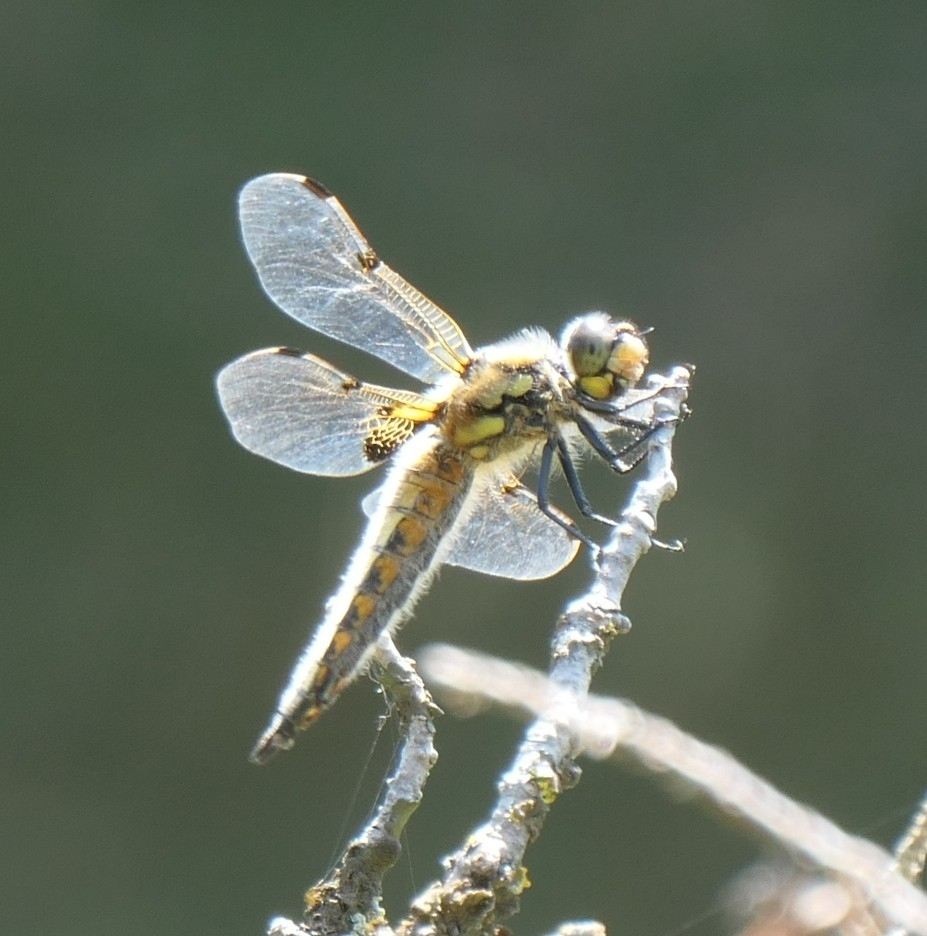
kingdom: Animalia
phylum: Arthropoda
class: Insecta
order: Odonata
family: Libellulidae
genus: Libellula
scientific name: Libellula quadrimaculata
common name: Four-spotted chaser
